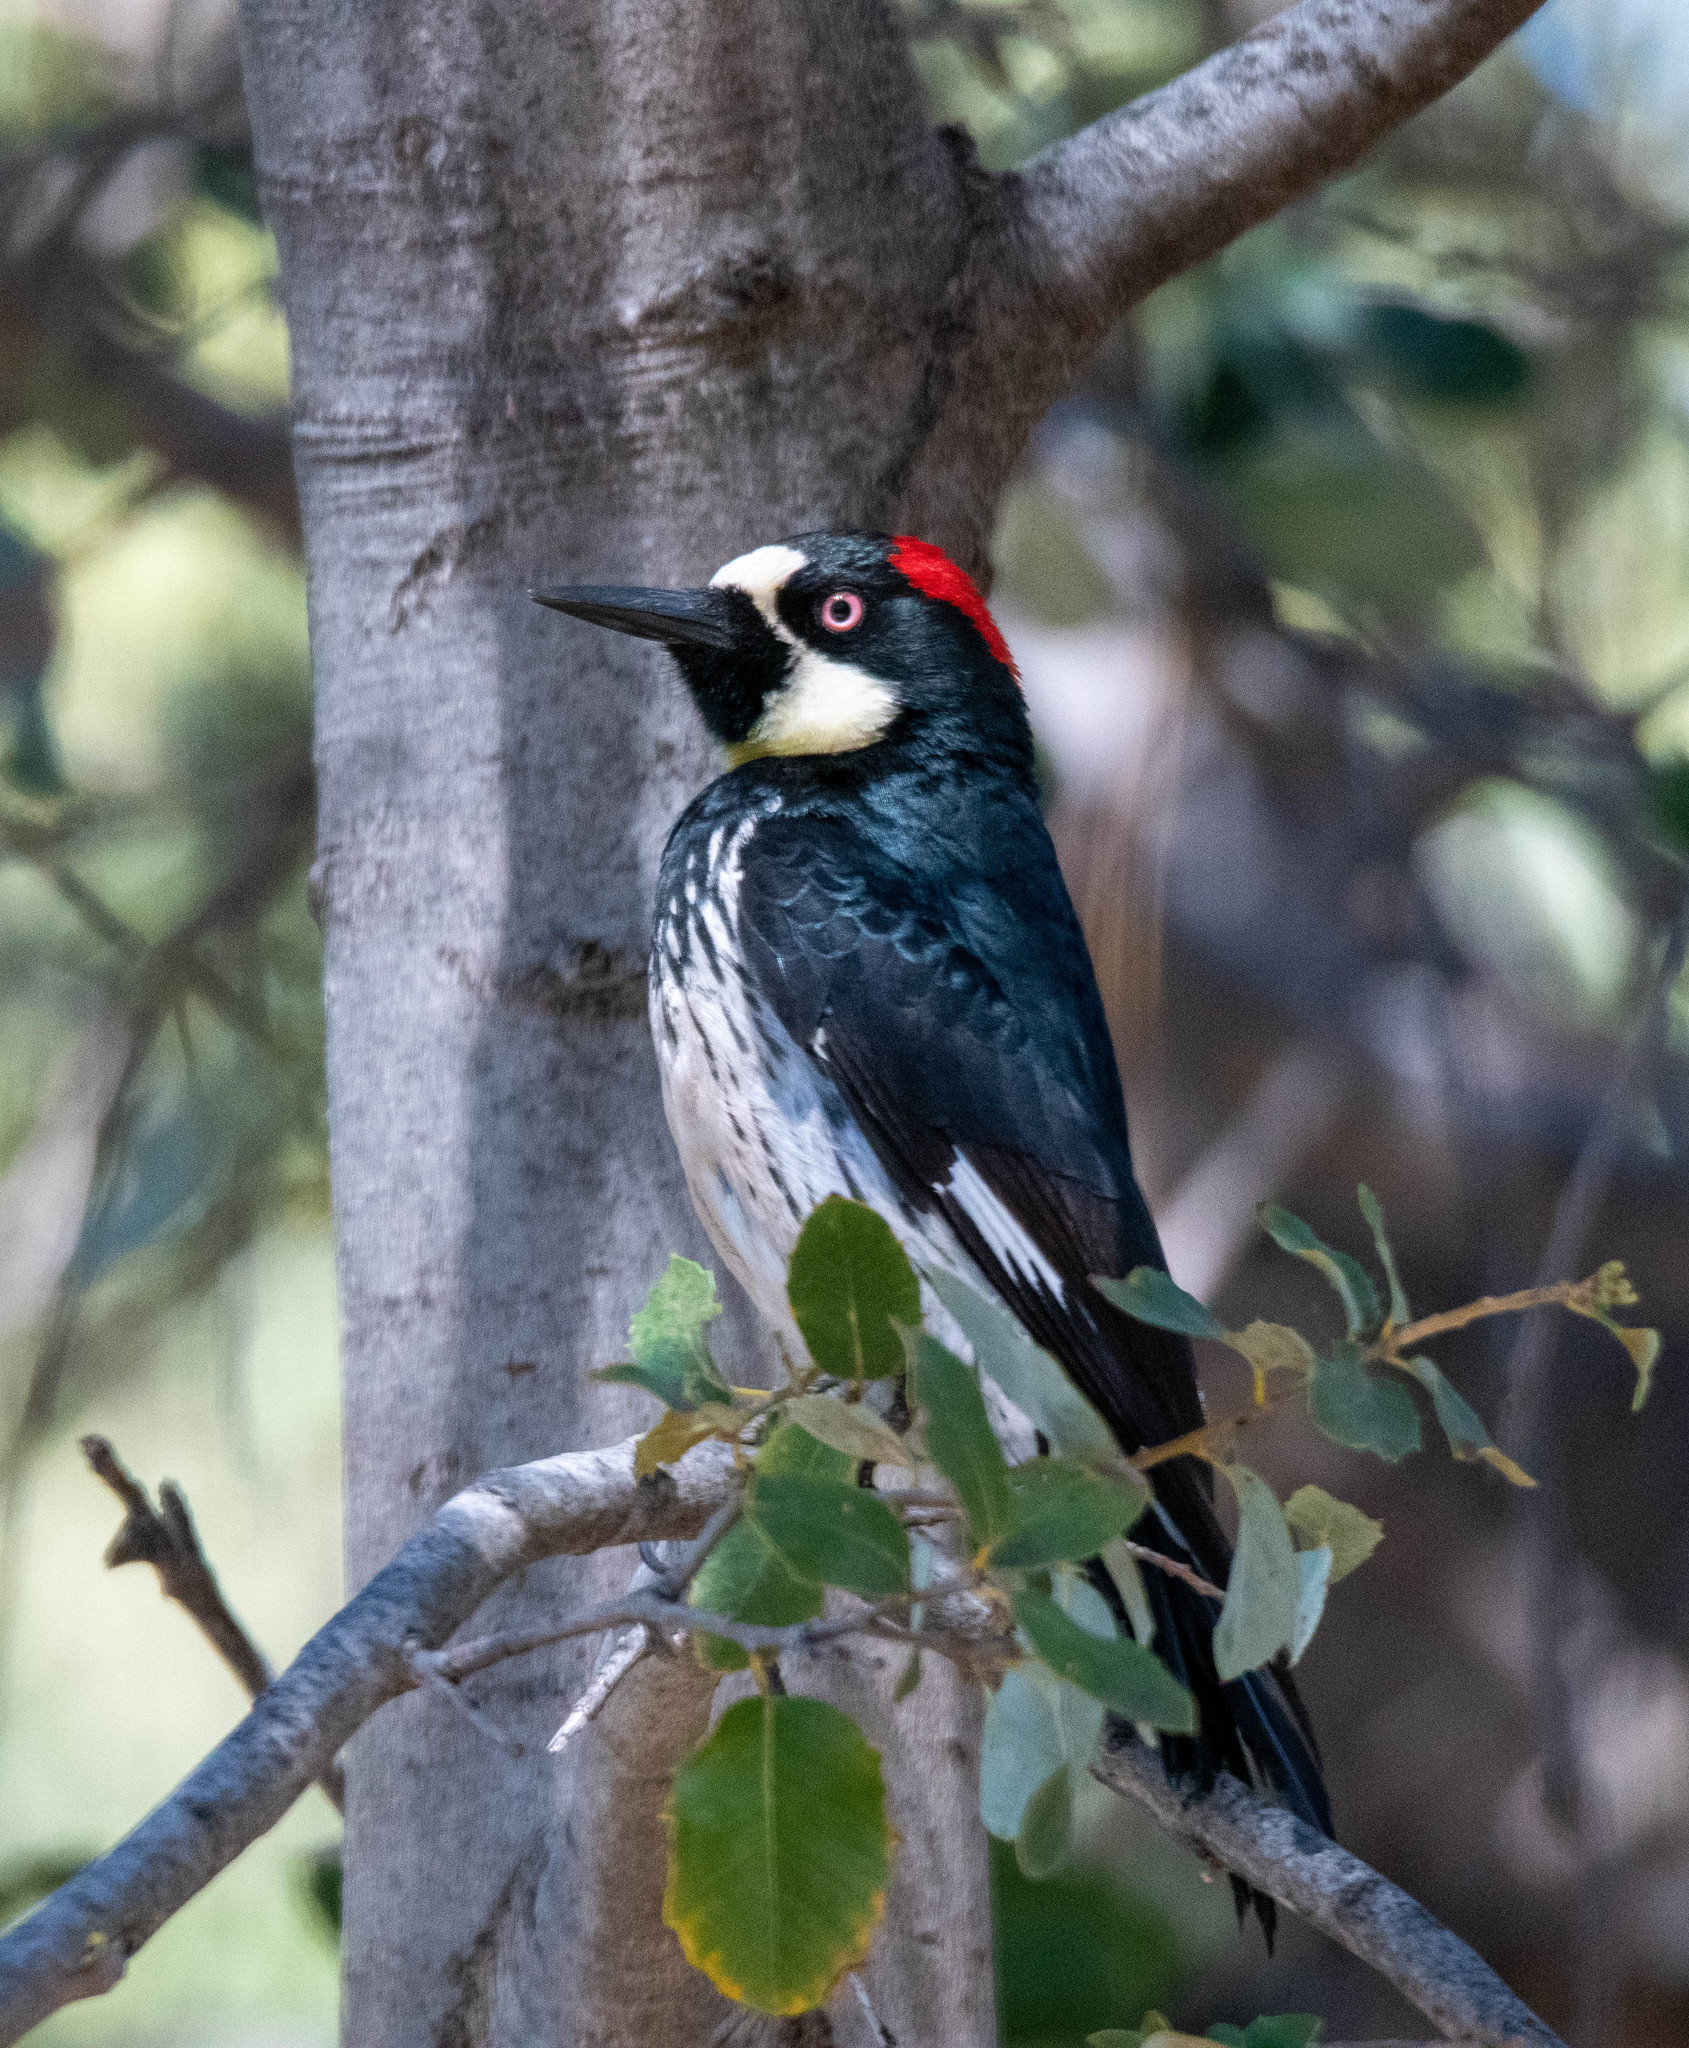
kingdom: Animalia
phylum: Chordata
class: Aves
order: Piciformes
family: Picidae
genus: Melanerpes
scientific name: Melanerpes formicivorus
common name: Acorn woodpecker
